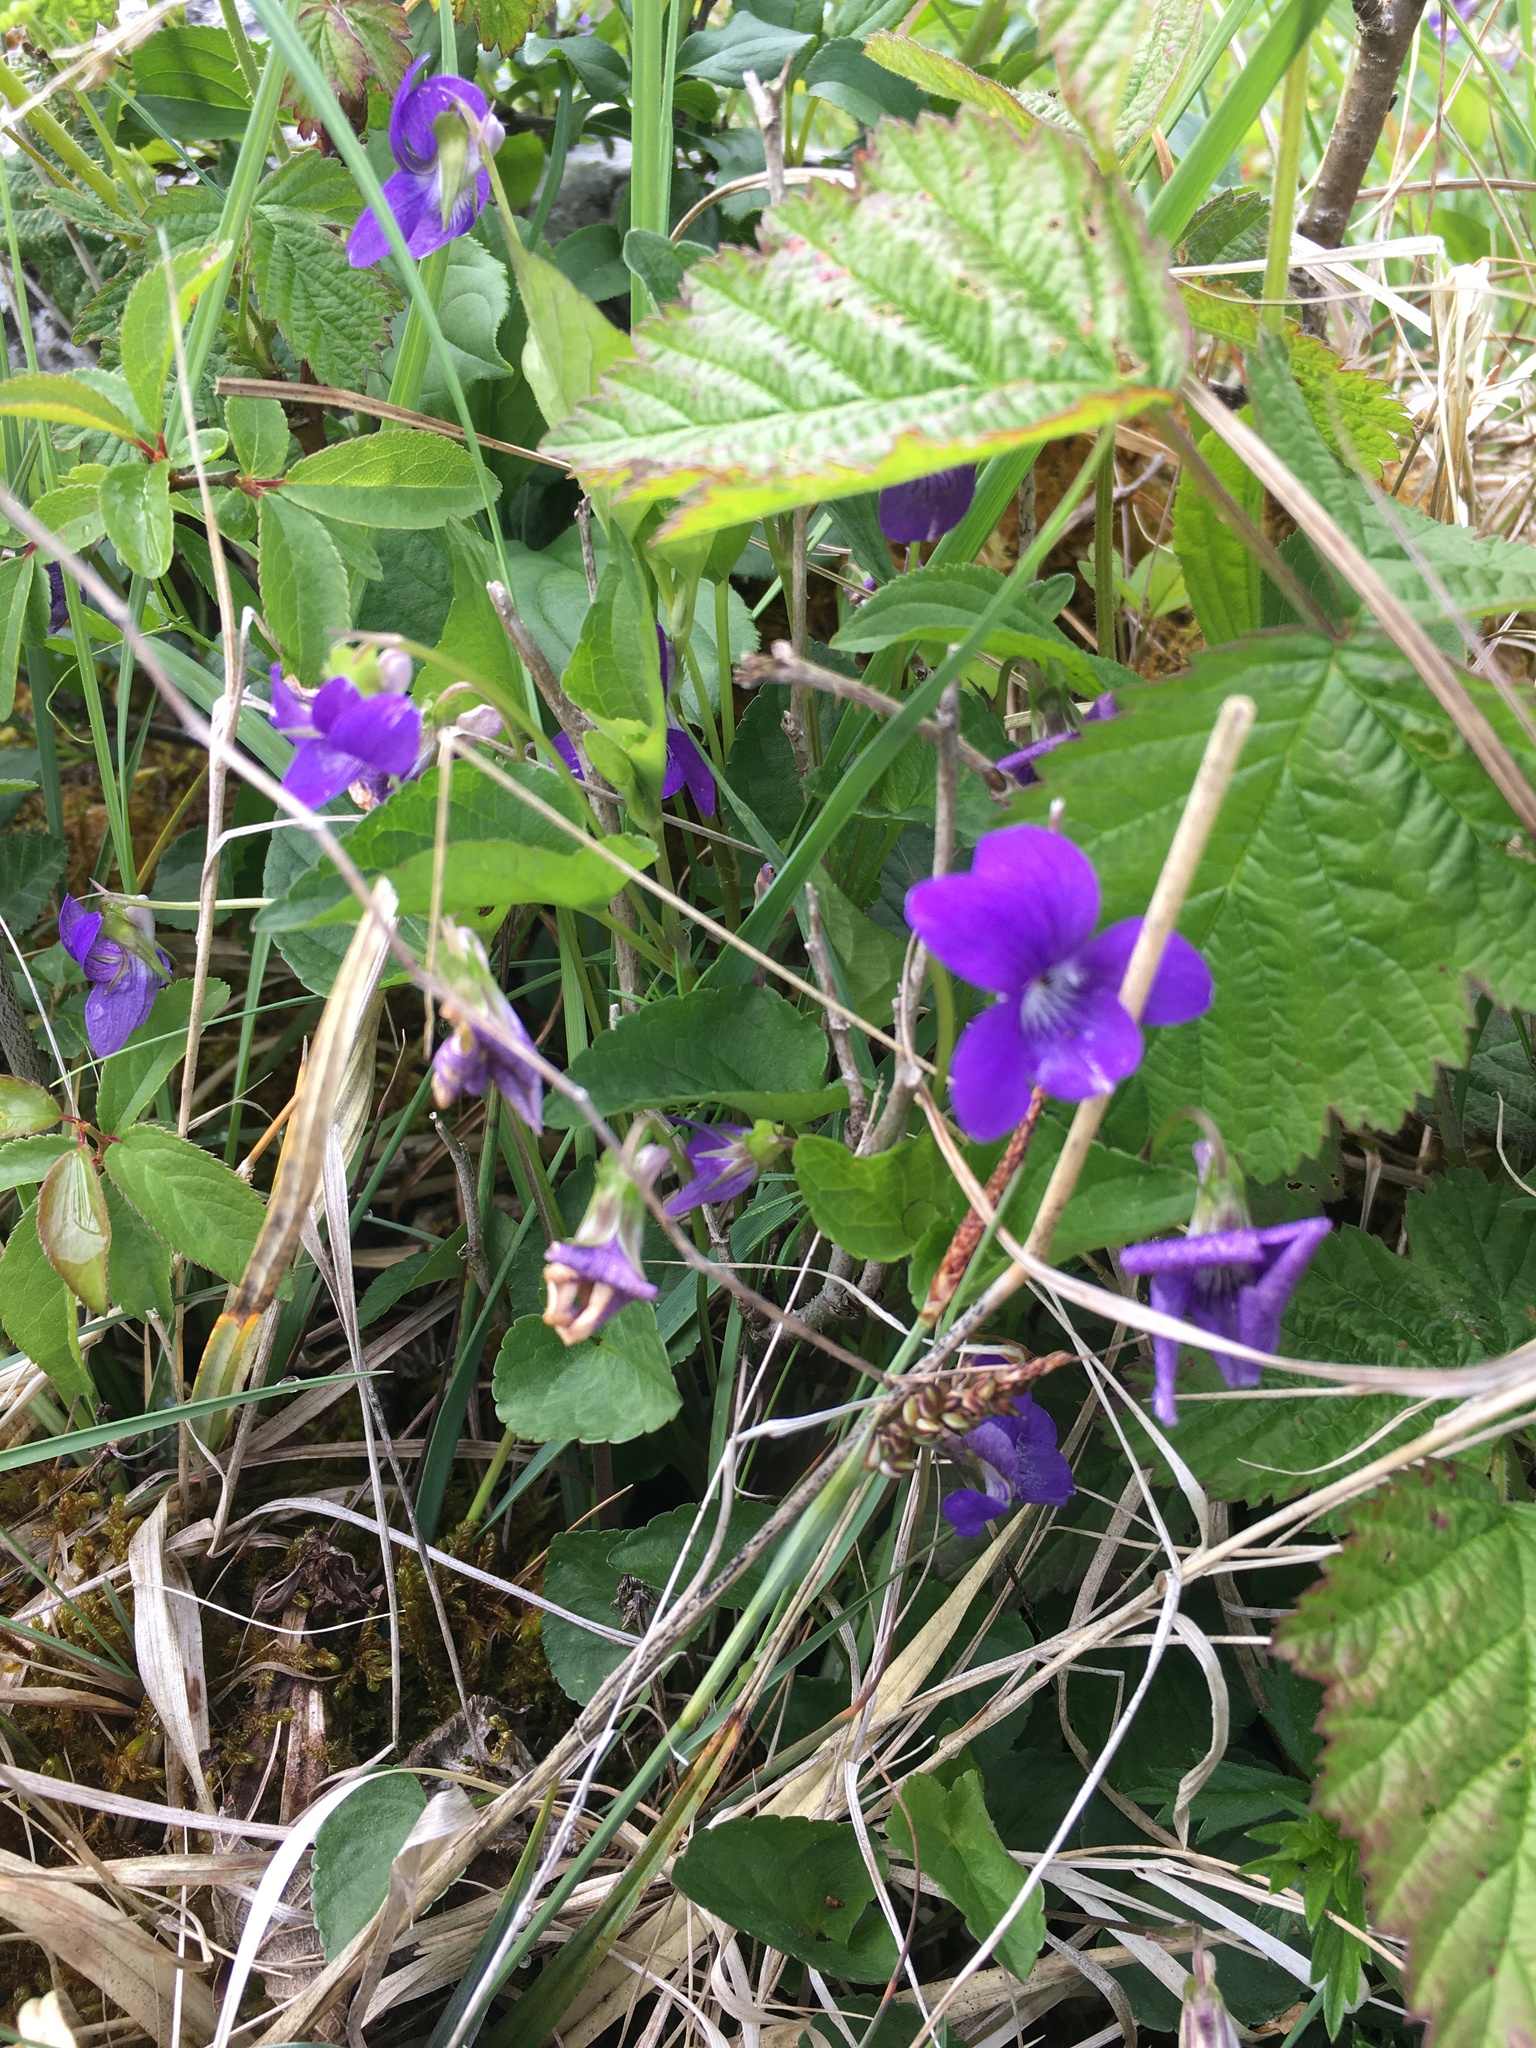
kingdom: Plantae
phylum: Tracheophyta
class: Magnoliopsida
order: Malpighiales
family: Violaceae
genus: Viola
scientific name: Viola riviniana
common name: Common dog-violet
